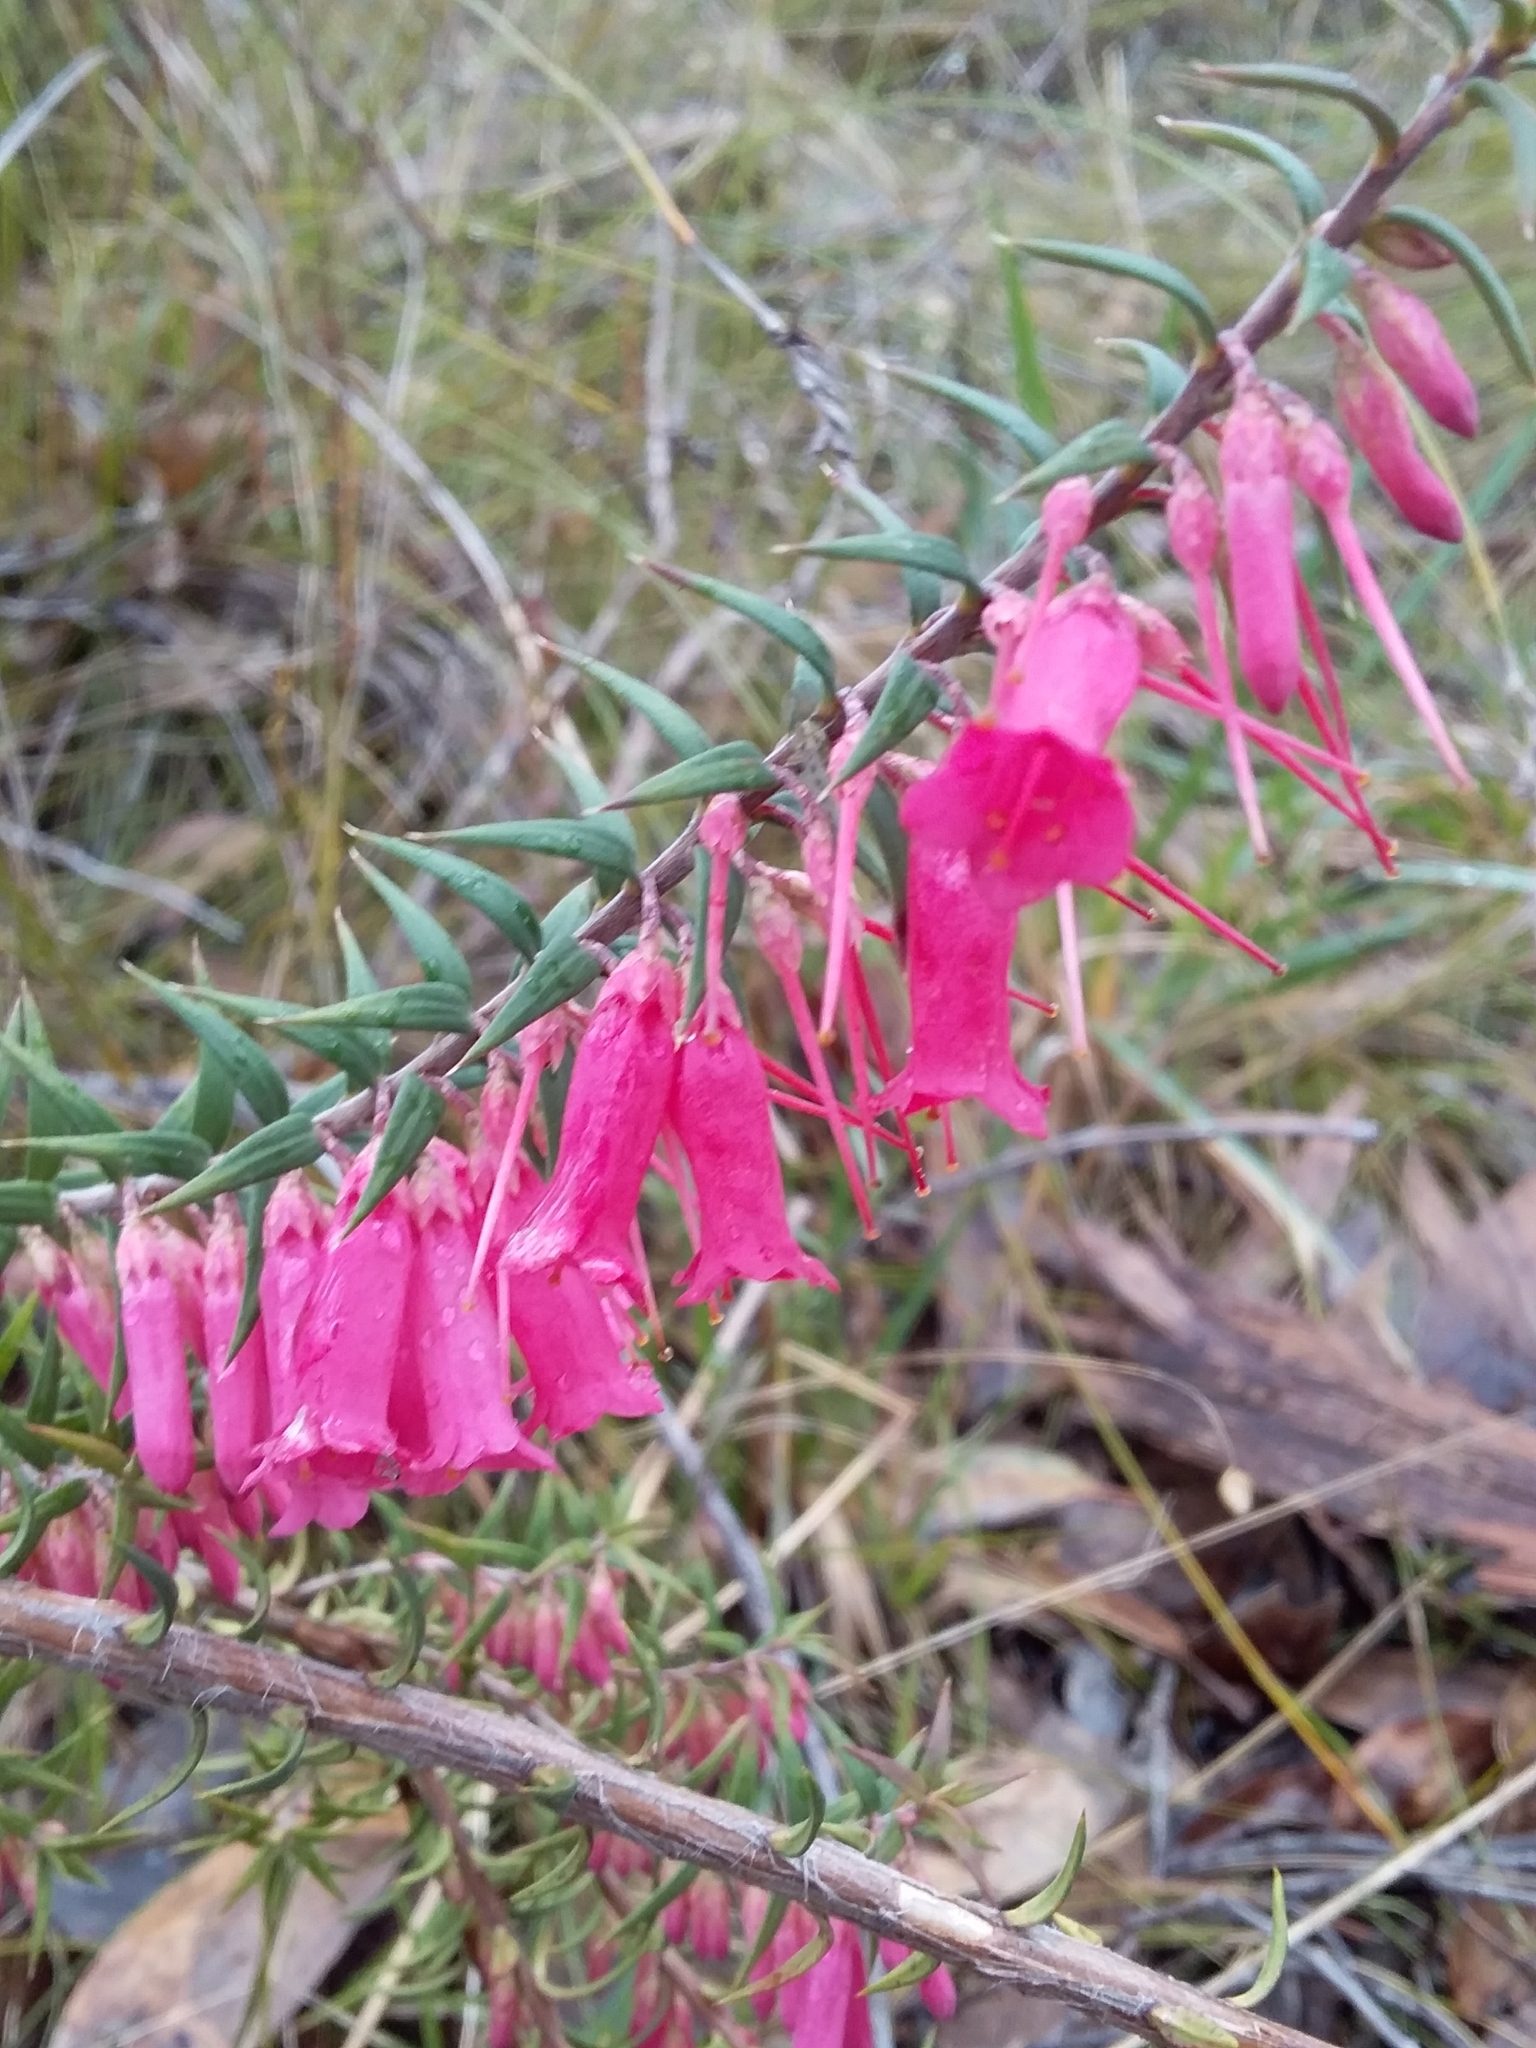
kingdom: Plantae
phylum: Tracheophyta
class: Magnoliopsida
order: Ericales
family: Ericaceae
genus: Epacris
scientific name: Epacris impressa
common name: Common-heath
